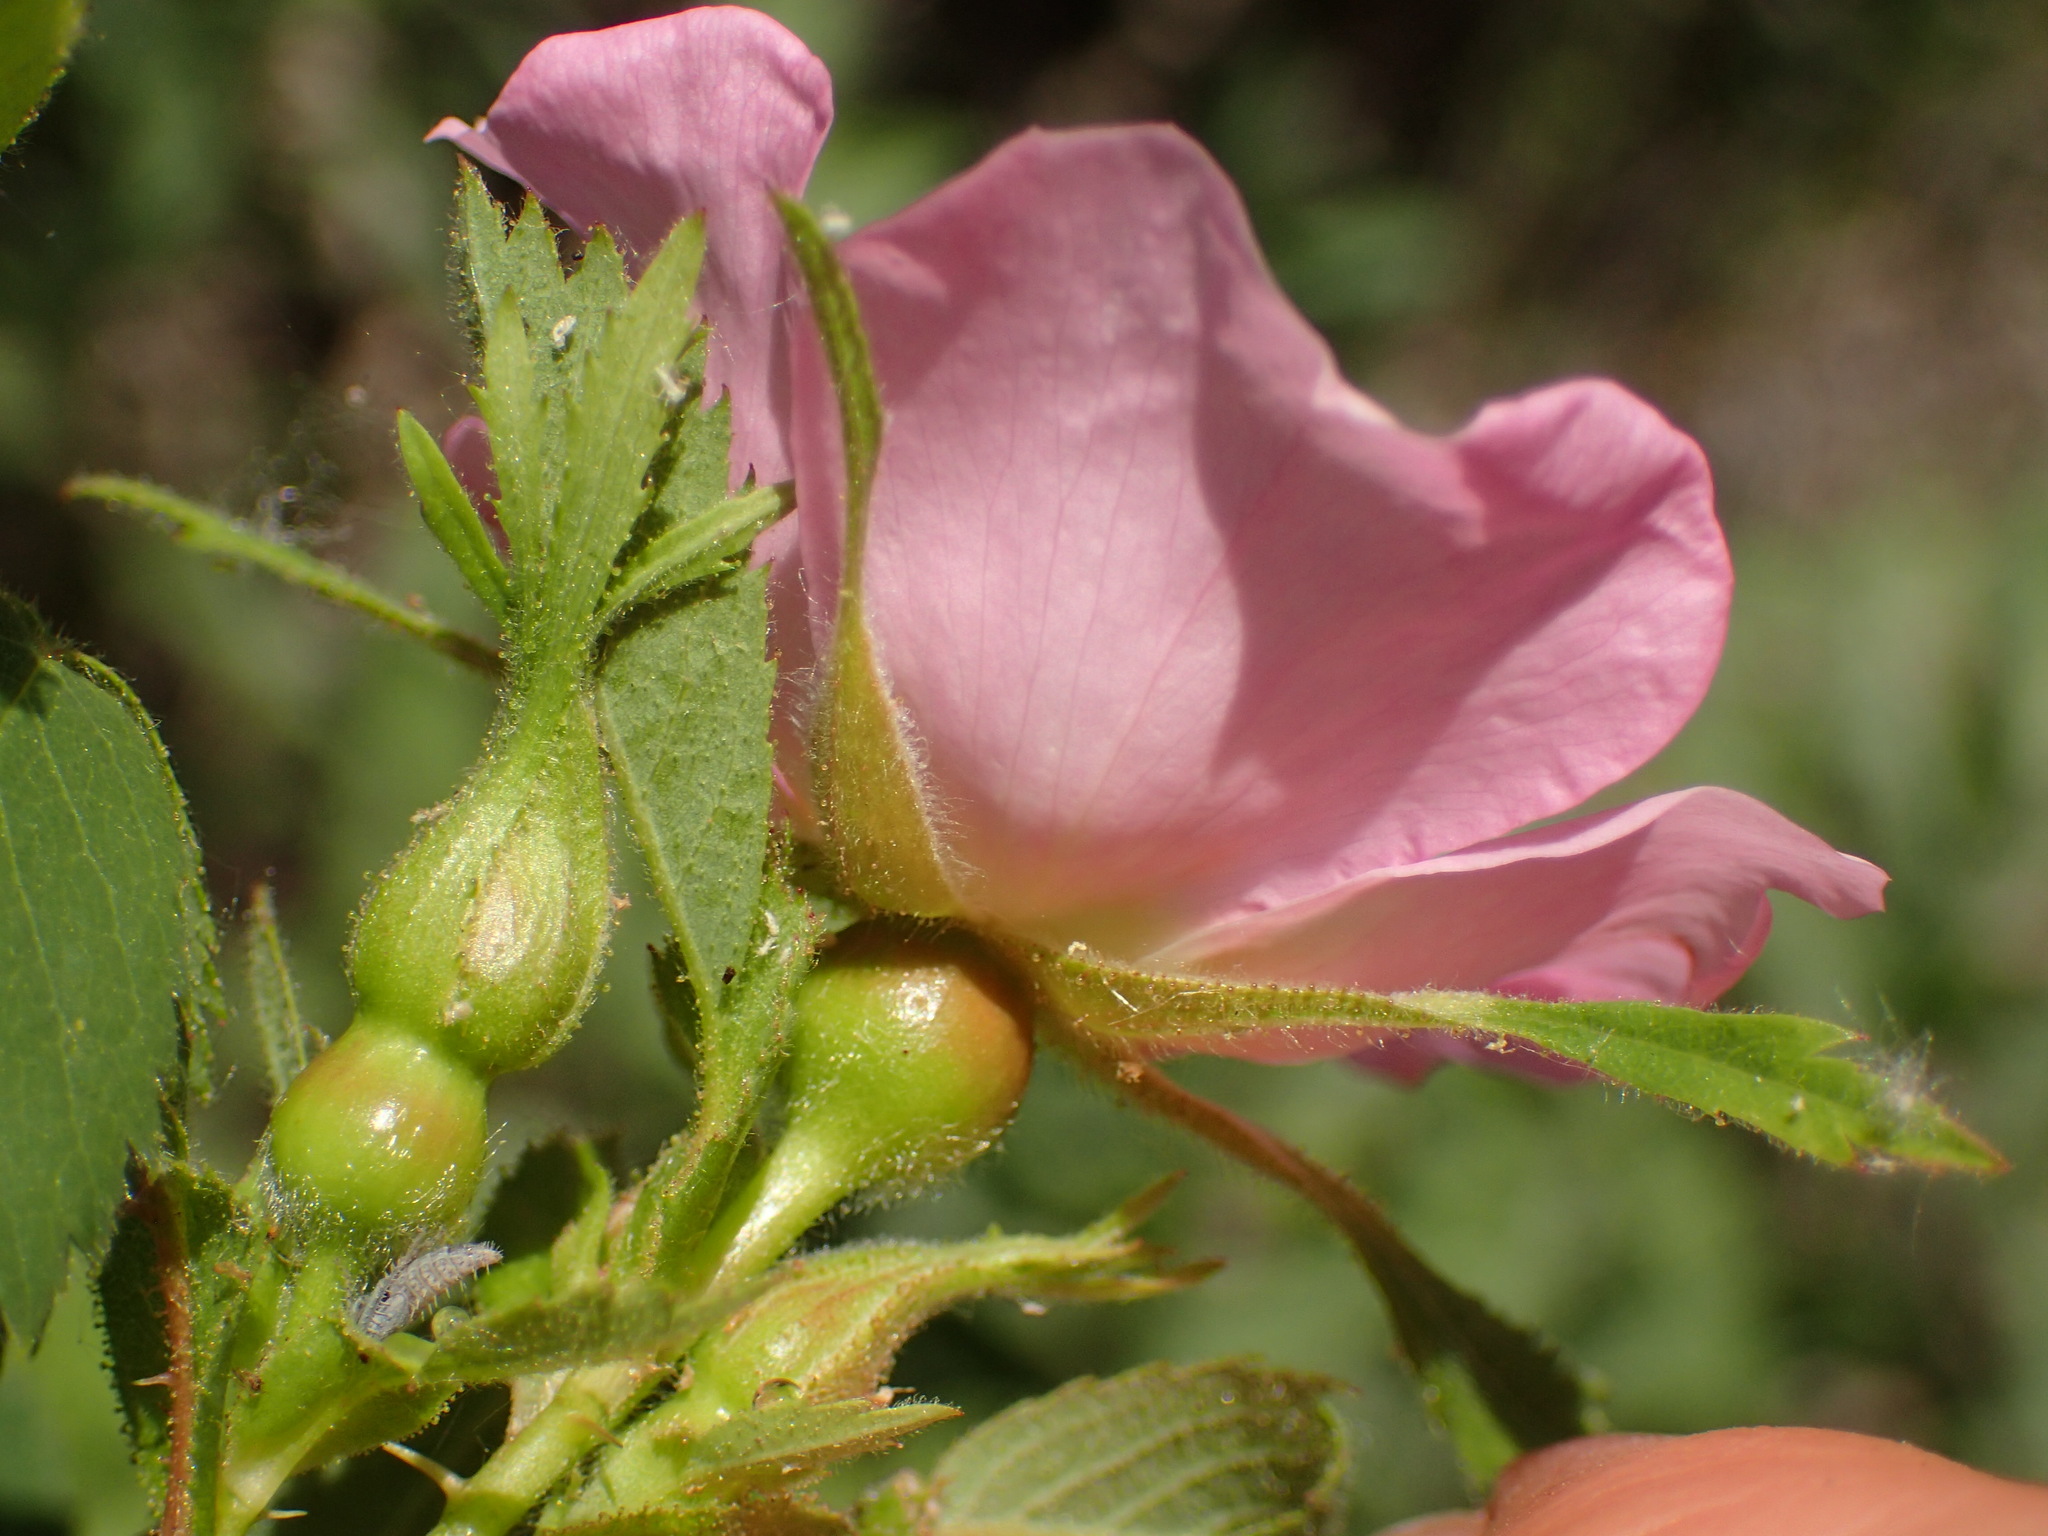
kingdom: Plantae
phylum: Tracheophyta
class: Magnoliopsida
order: Rosales
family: Rosaceae
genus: Rosa
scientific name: Rosa californica
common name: California rose
